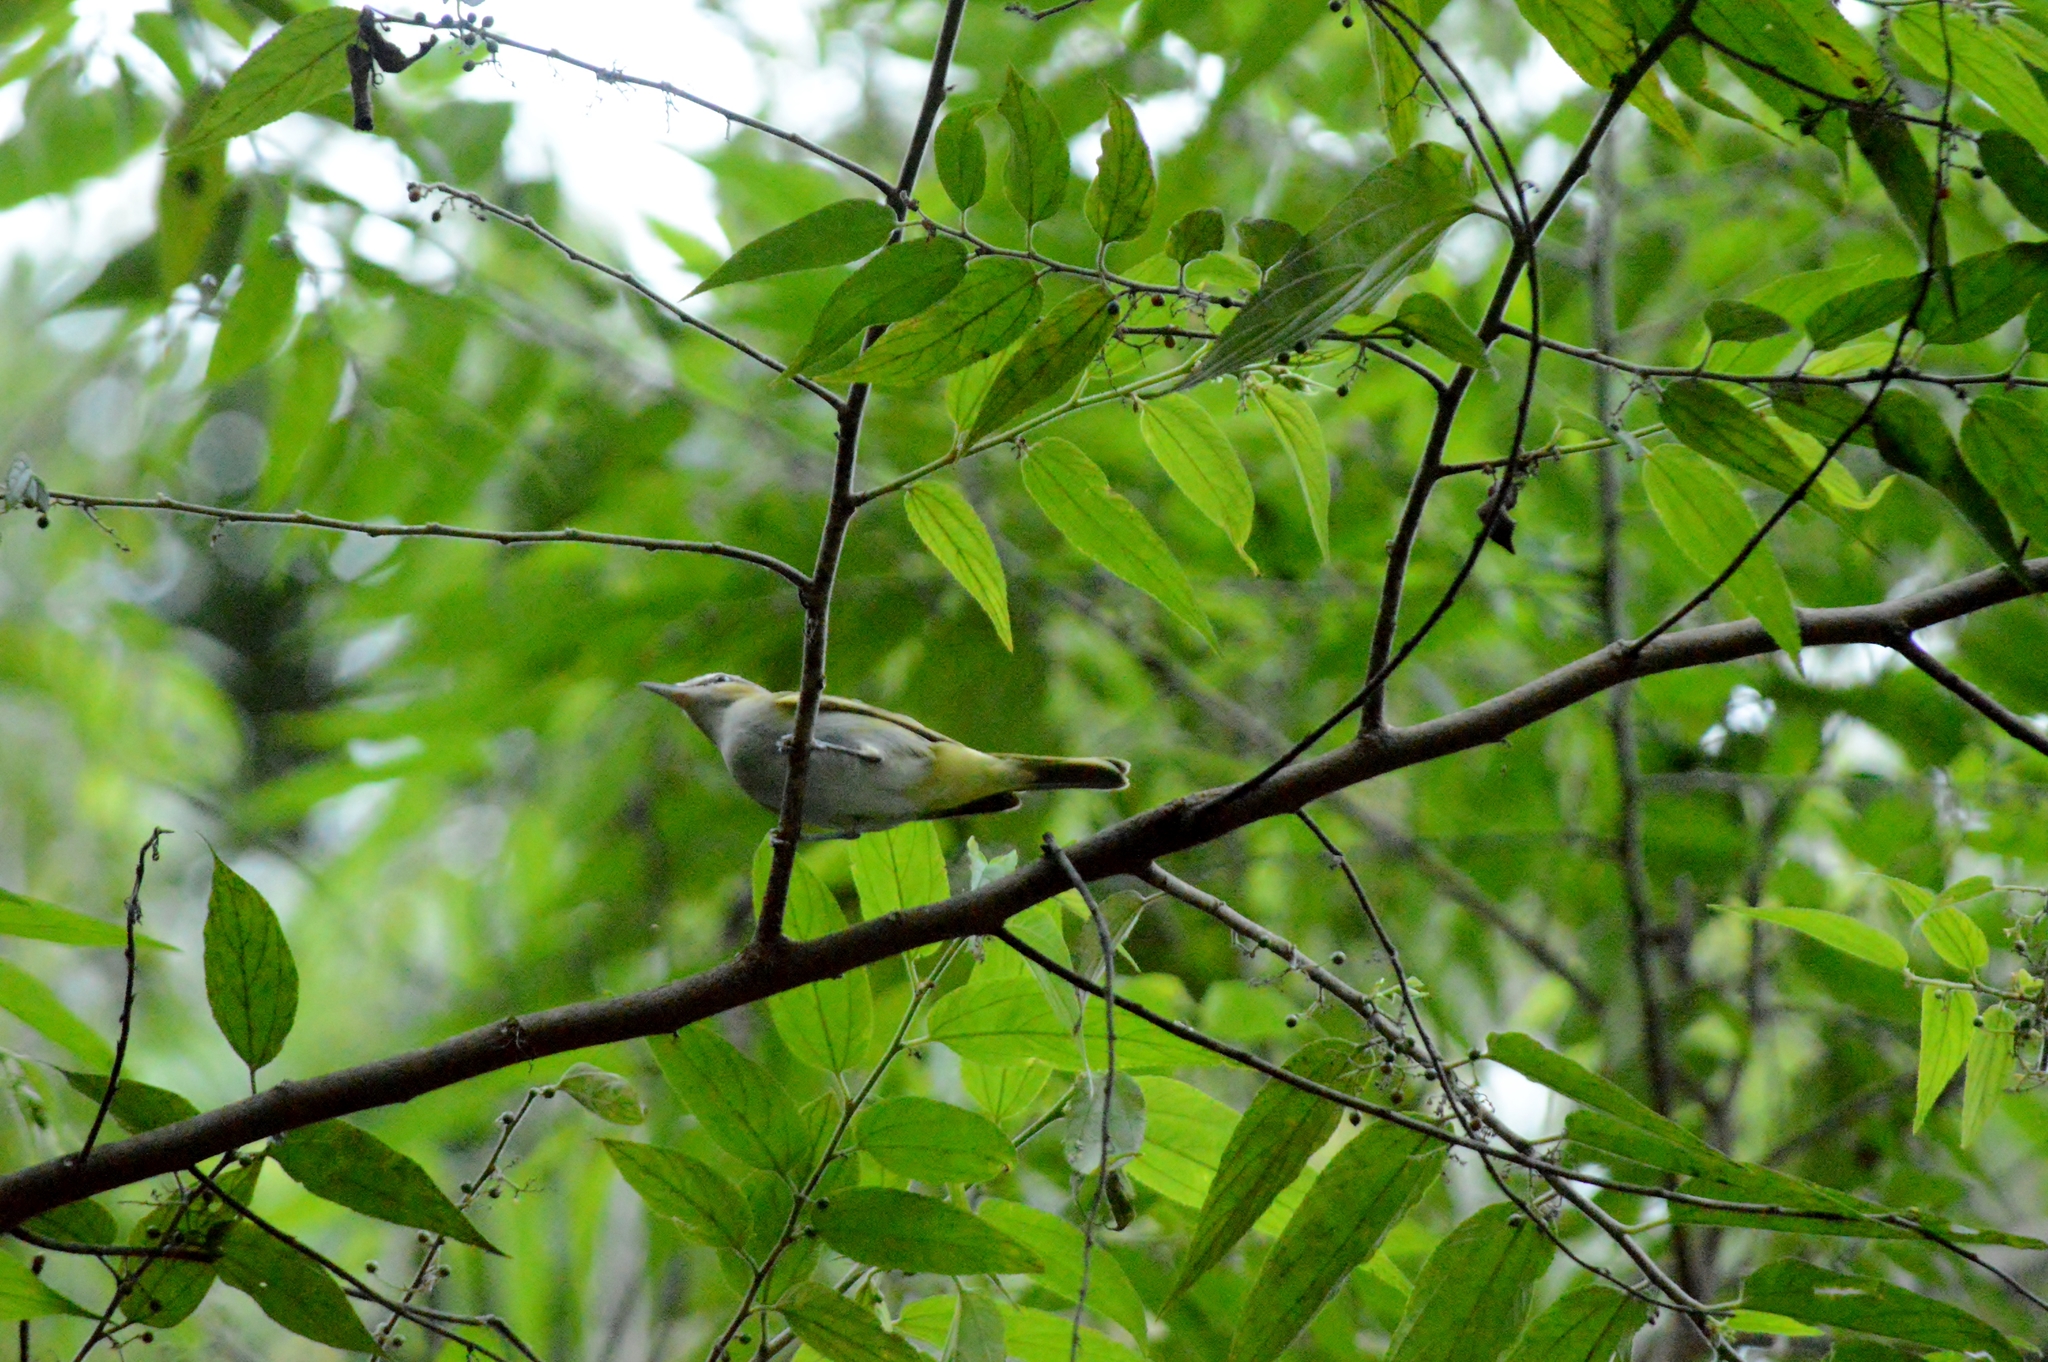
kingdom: Animalia
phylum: Chordata
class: Aves
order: Passeriformes
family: Vireonidae
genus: Vireo
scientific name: Vireo olivaceus
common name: Red-eyed vireo
